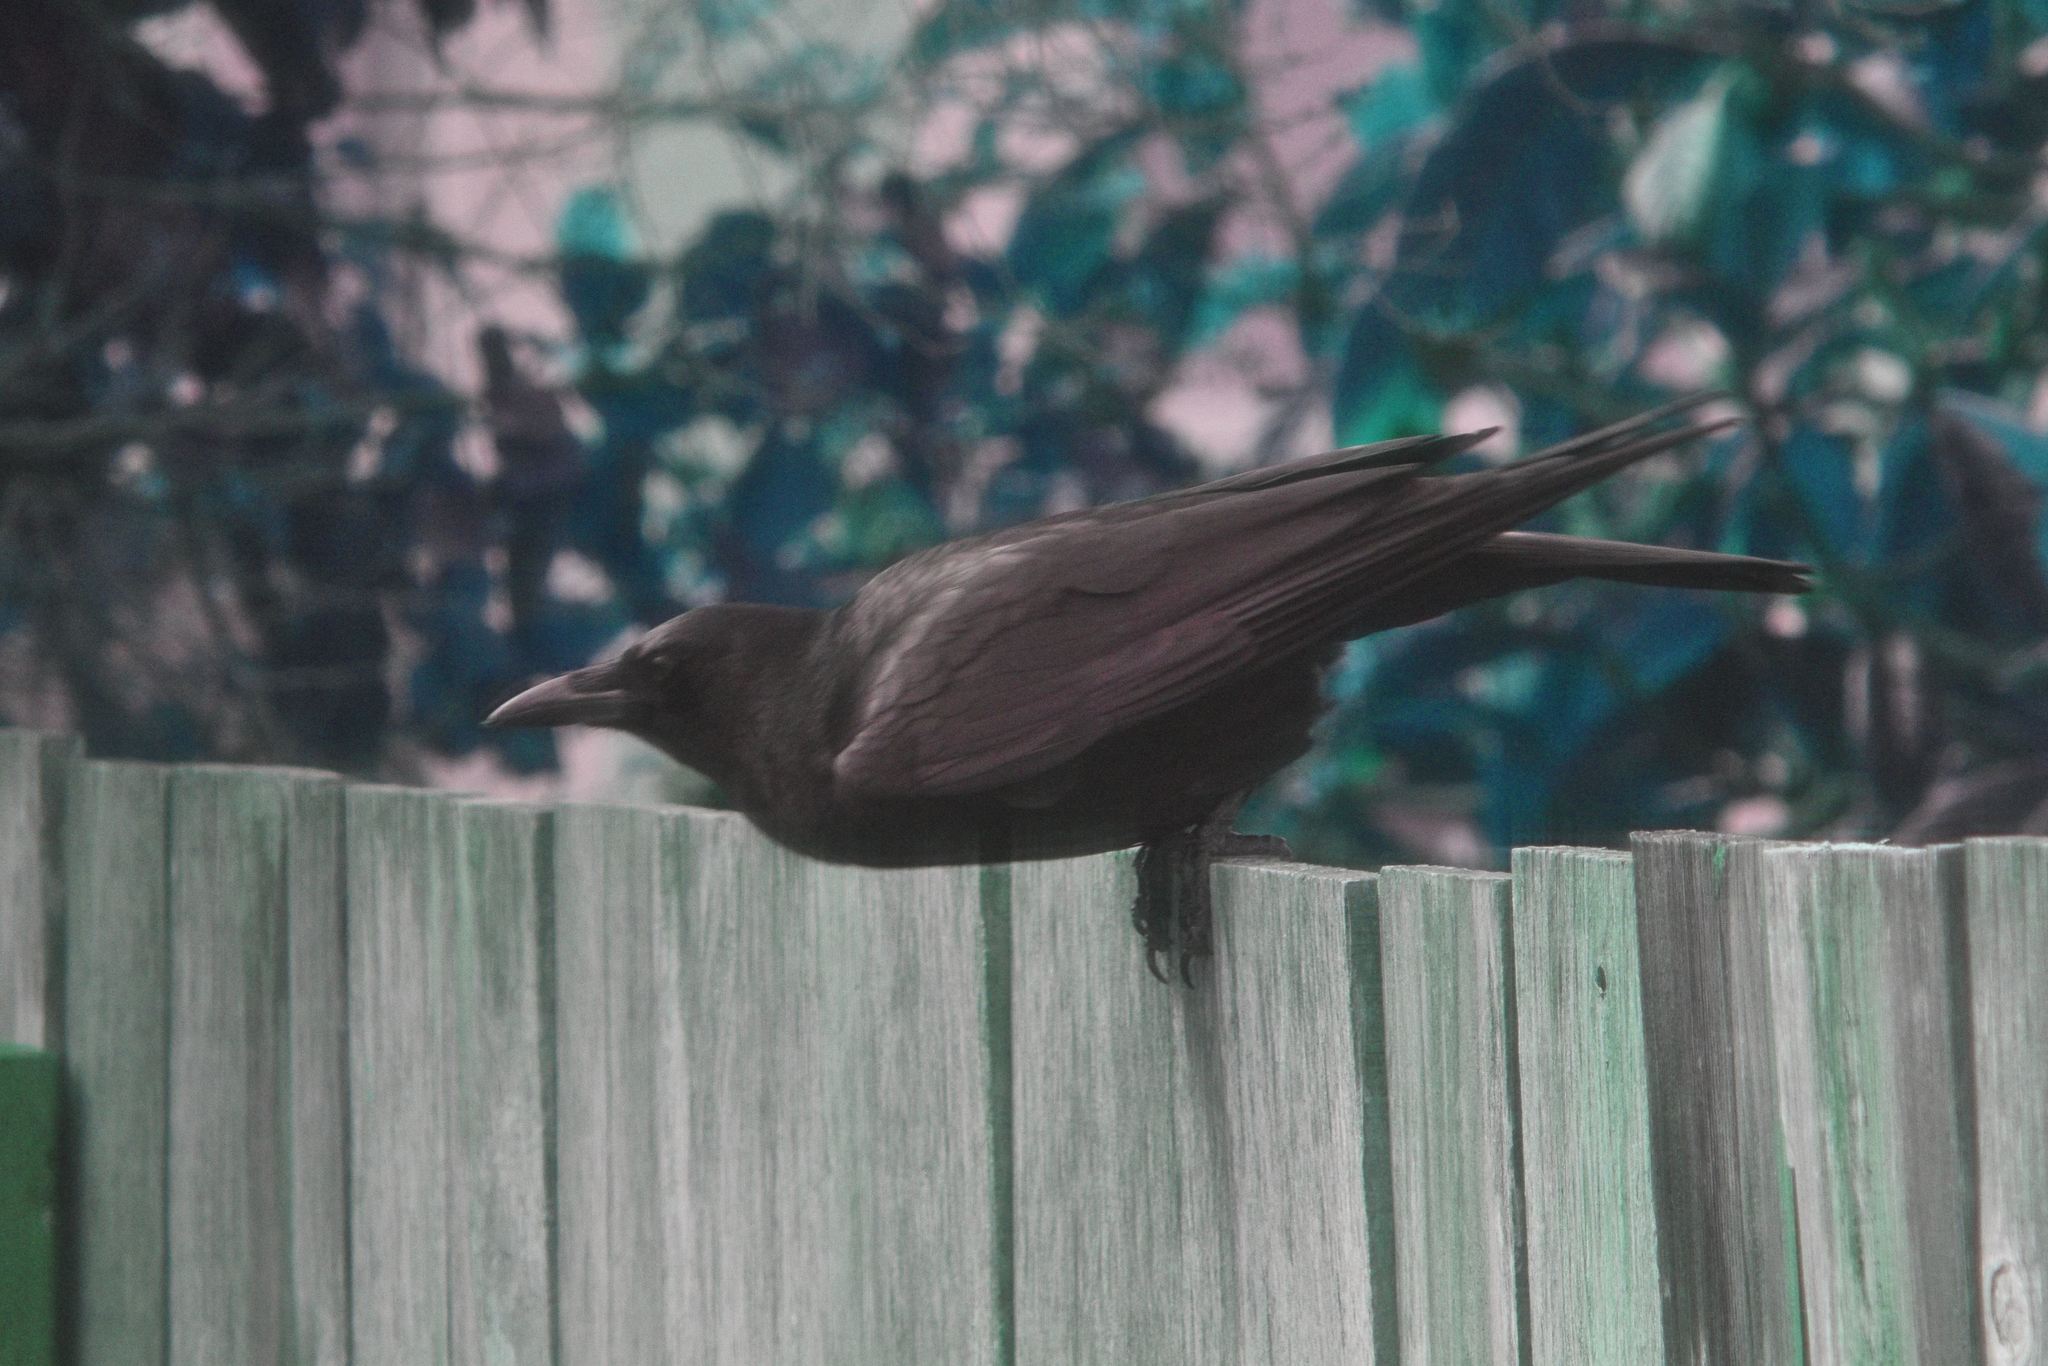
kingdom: Animalia
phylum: Chordata
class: Aves
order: Passeriformes
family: Corvidae
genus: Corvus
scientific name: Corvus brachyrhynchos
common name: American crow
